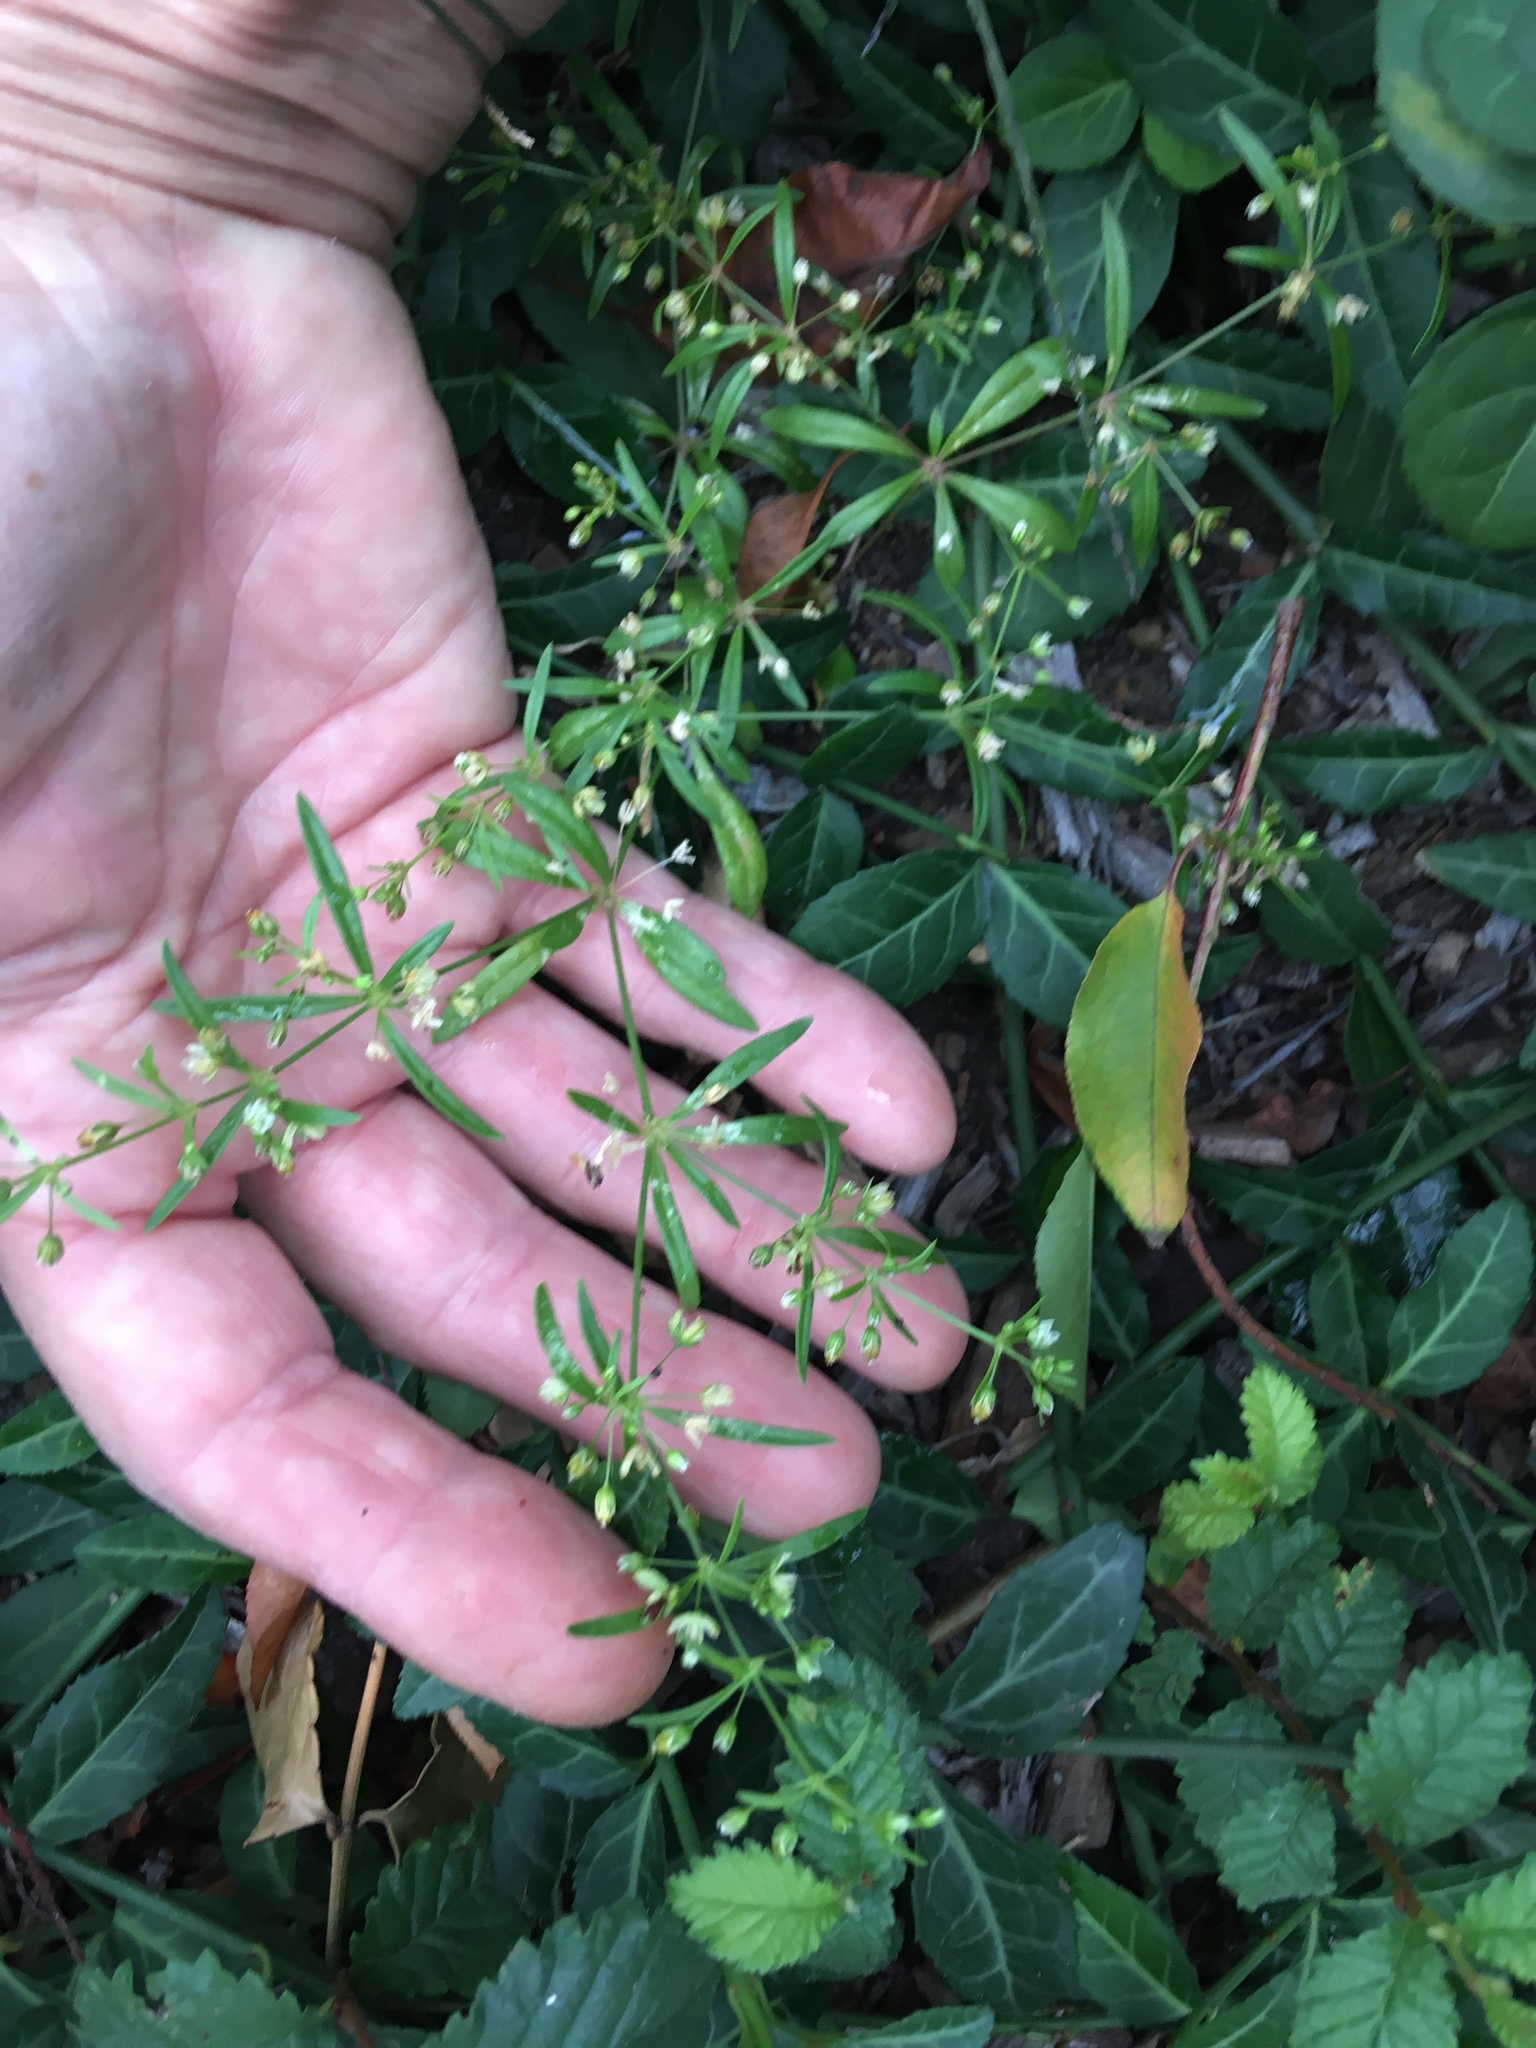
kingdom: Plantae
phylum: Tracheophyta
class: Magnoliopsida
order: Caryophyllales
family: Molluginaceae
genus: Mollugo
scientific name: Mollugo verticillata
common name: Green carpetweed
